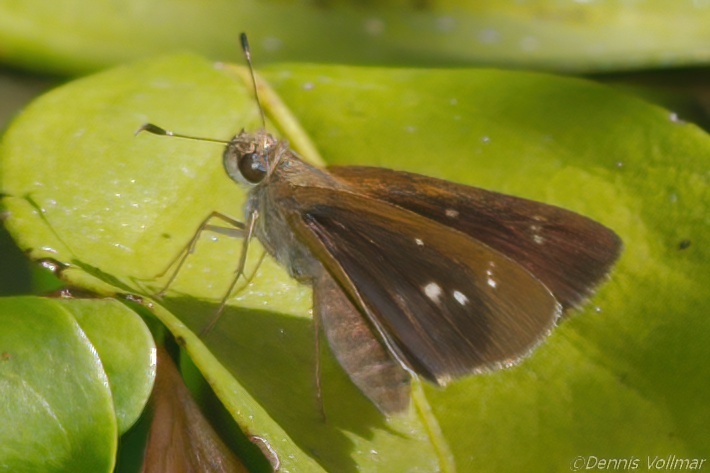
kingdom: Animalia
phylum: Arthropoda
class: Insecta
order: Lepidoptera
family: Hesperiidae
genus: Cymaenes
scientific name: Cymaenes tripunctus
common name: Dingy dotted skipper
